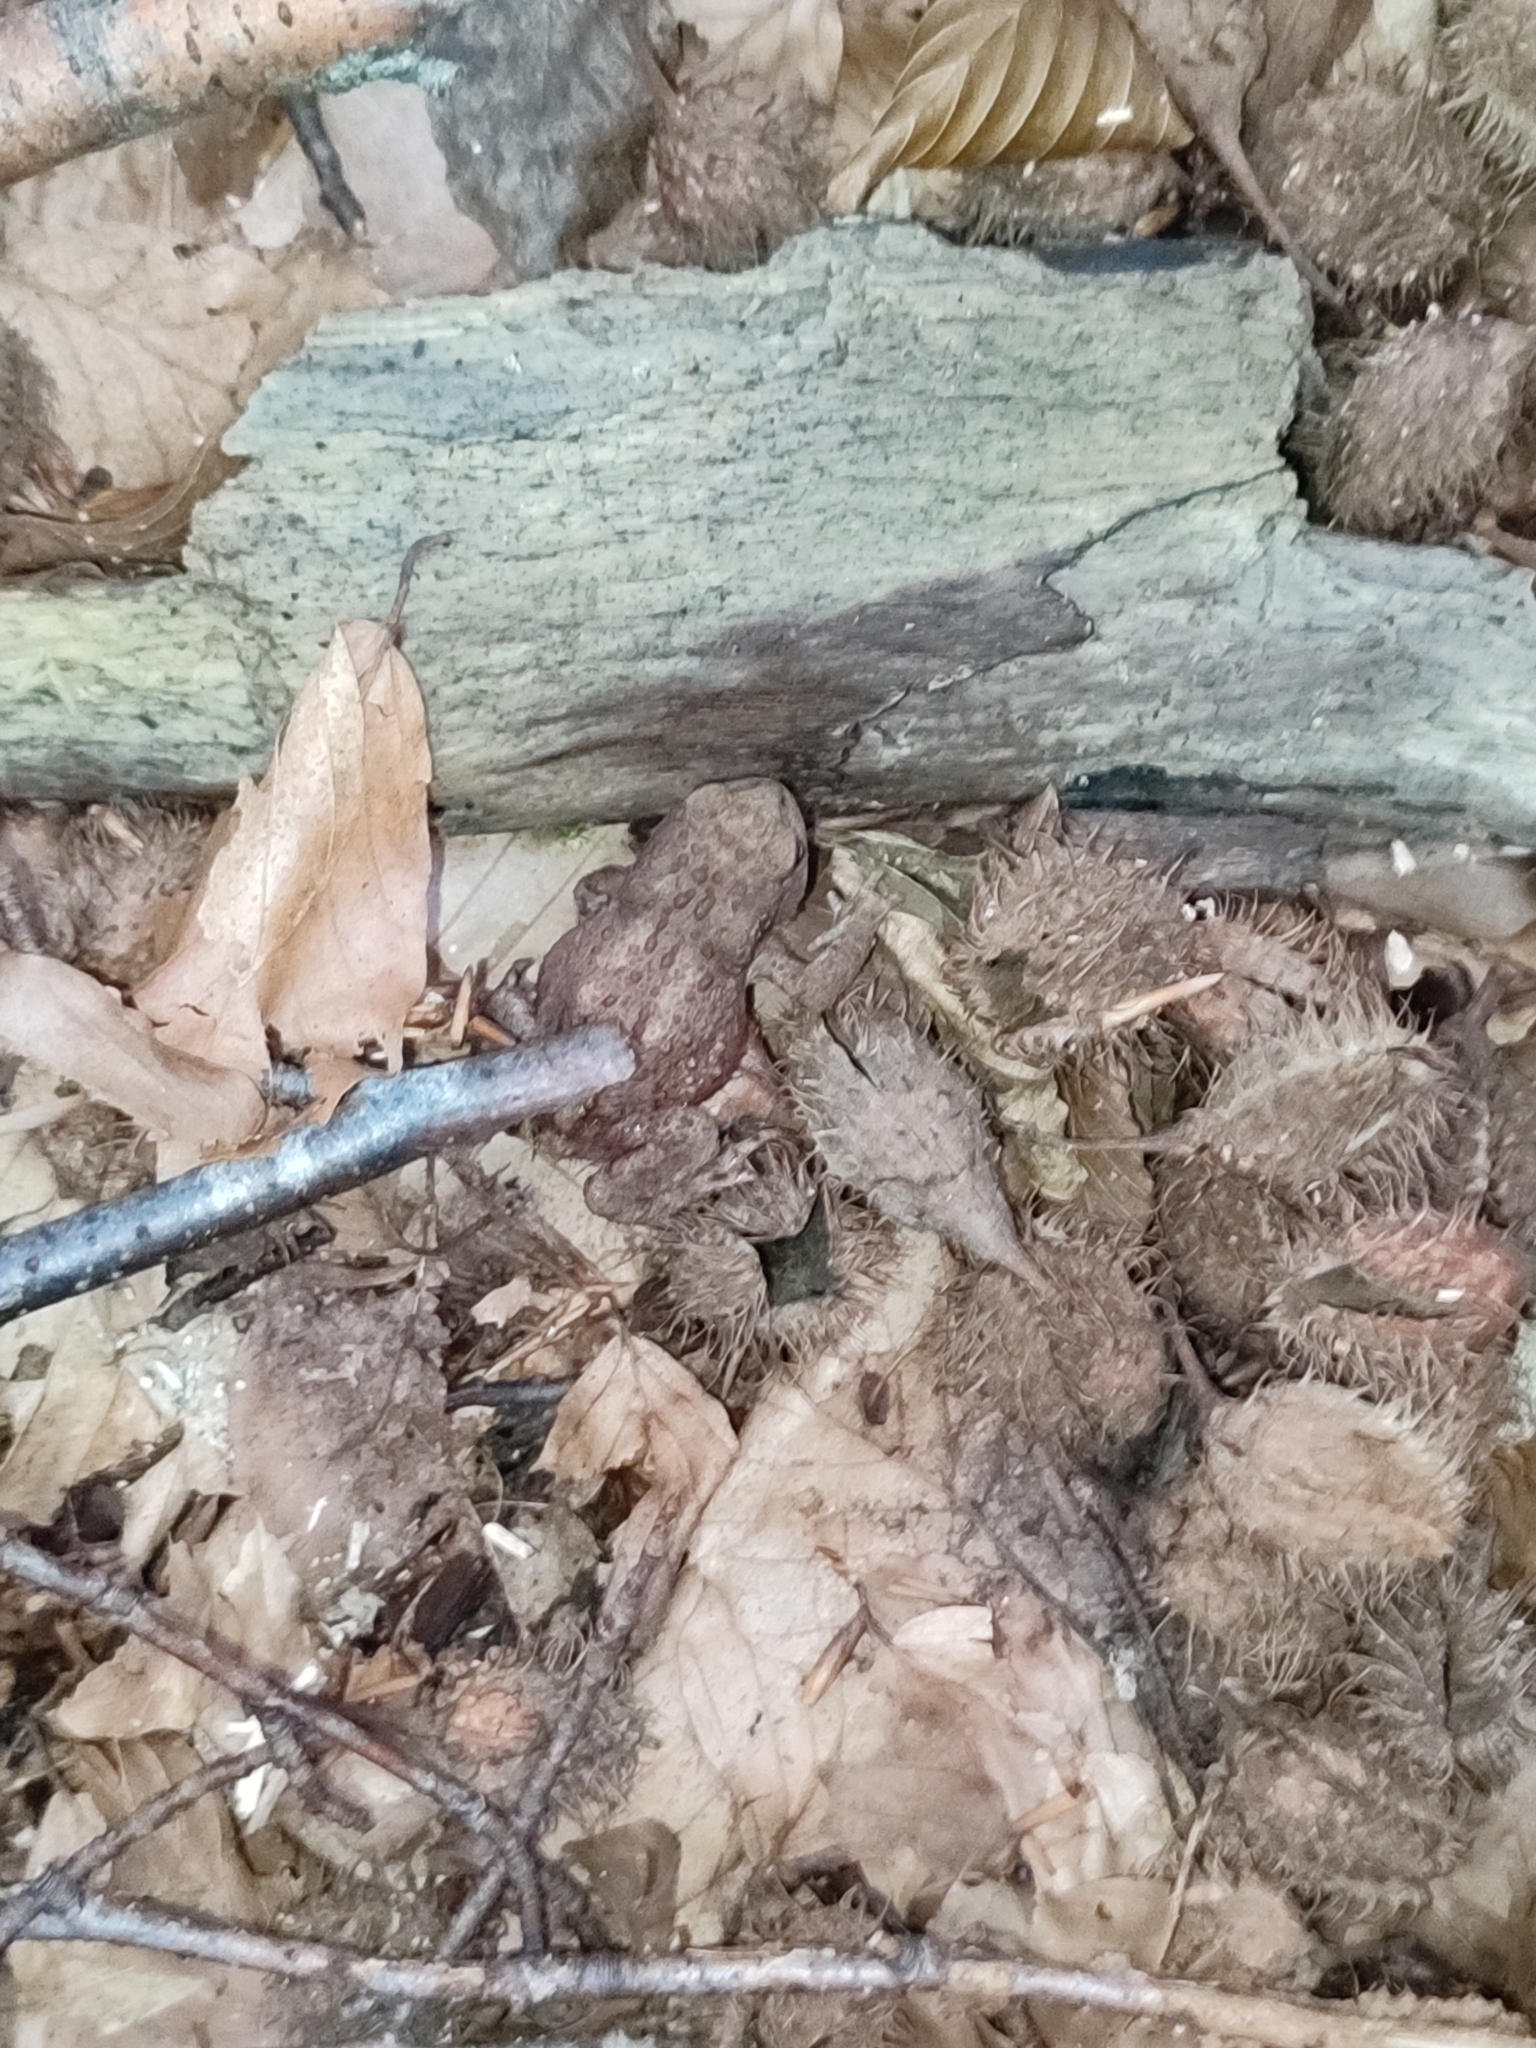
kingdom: Animalia
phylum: Chordata
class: Amphibia
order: Anura
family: Bufonidae
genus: Bufo
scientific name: Bufo bufo
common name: Common toad
